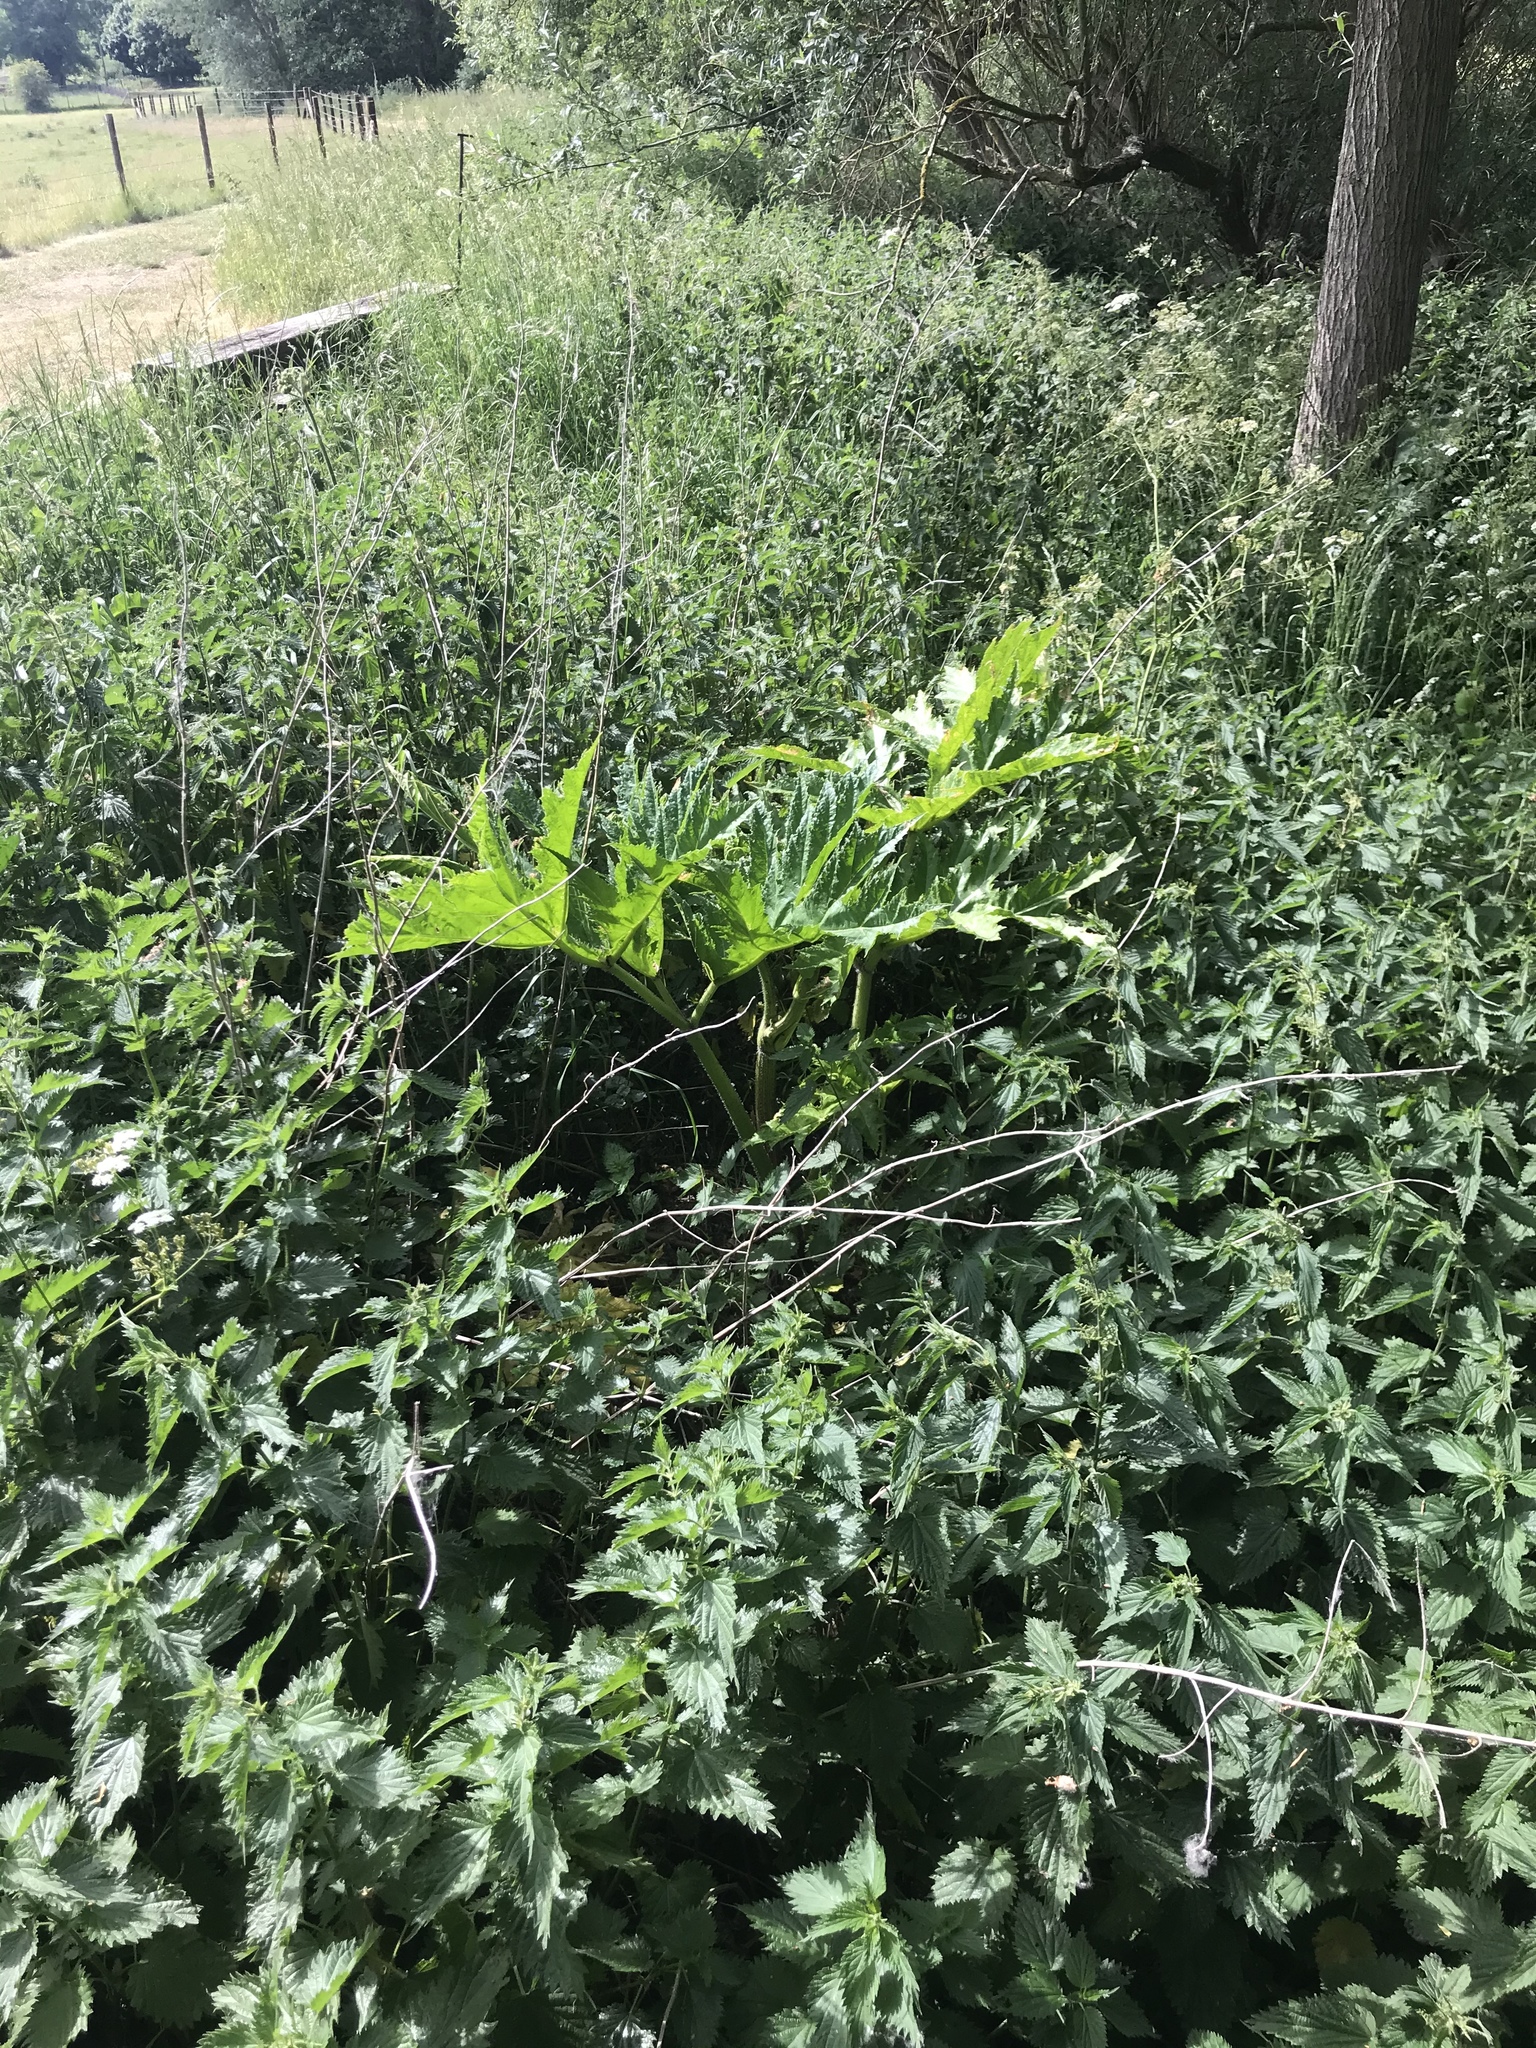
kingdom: Plantae
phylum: Tracheophyta
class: Magnoliopsida
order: Apiales
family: Apiaceae
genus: Heracleum
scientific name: Heracleum mantegazzianum
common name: Giant hogweed
